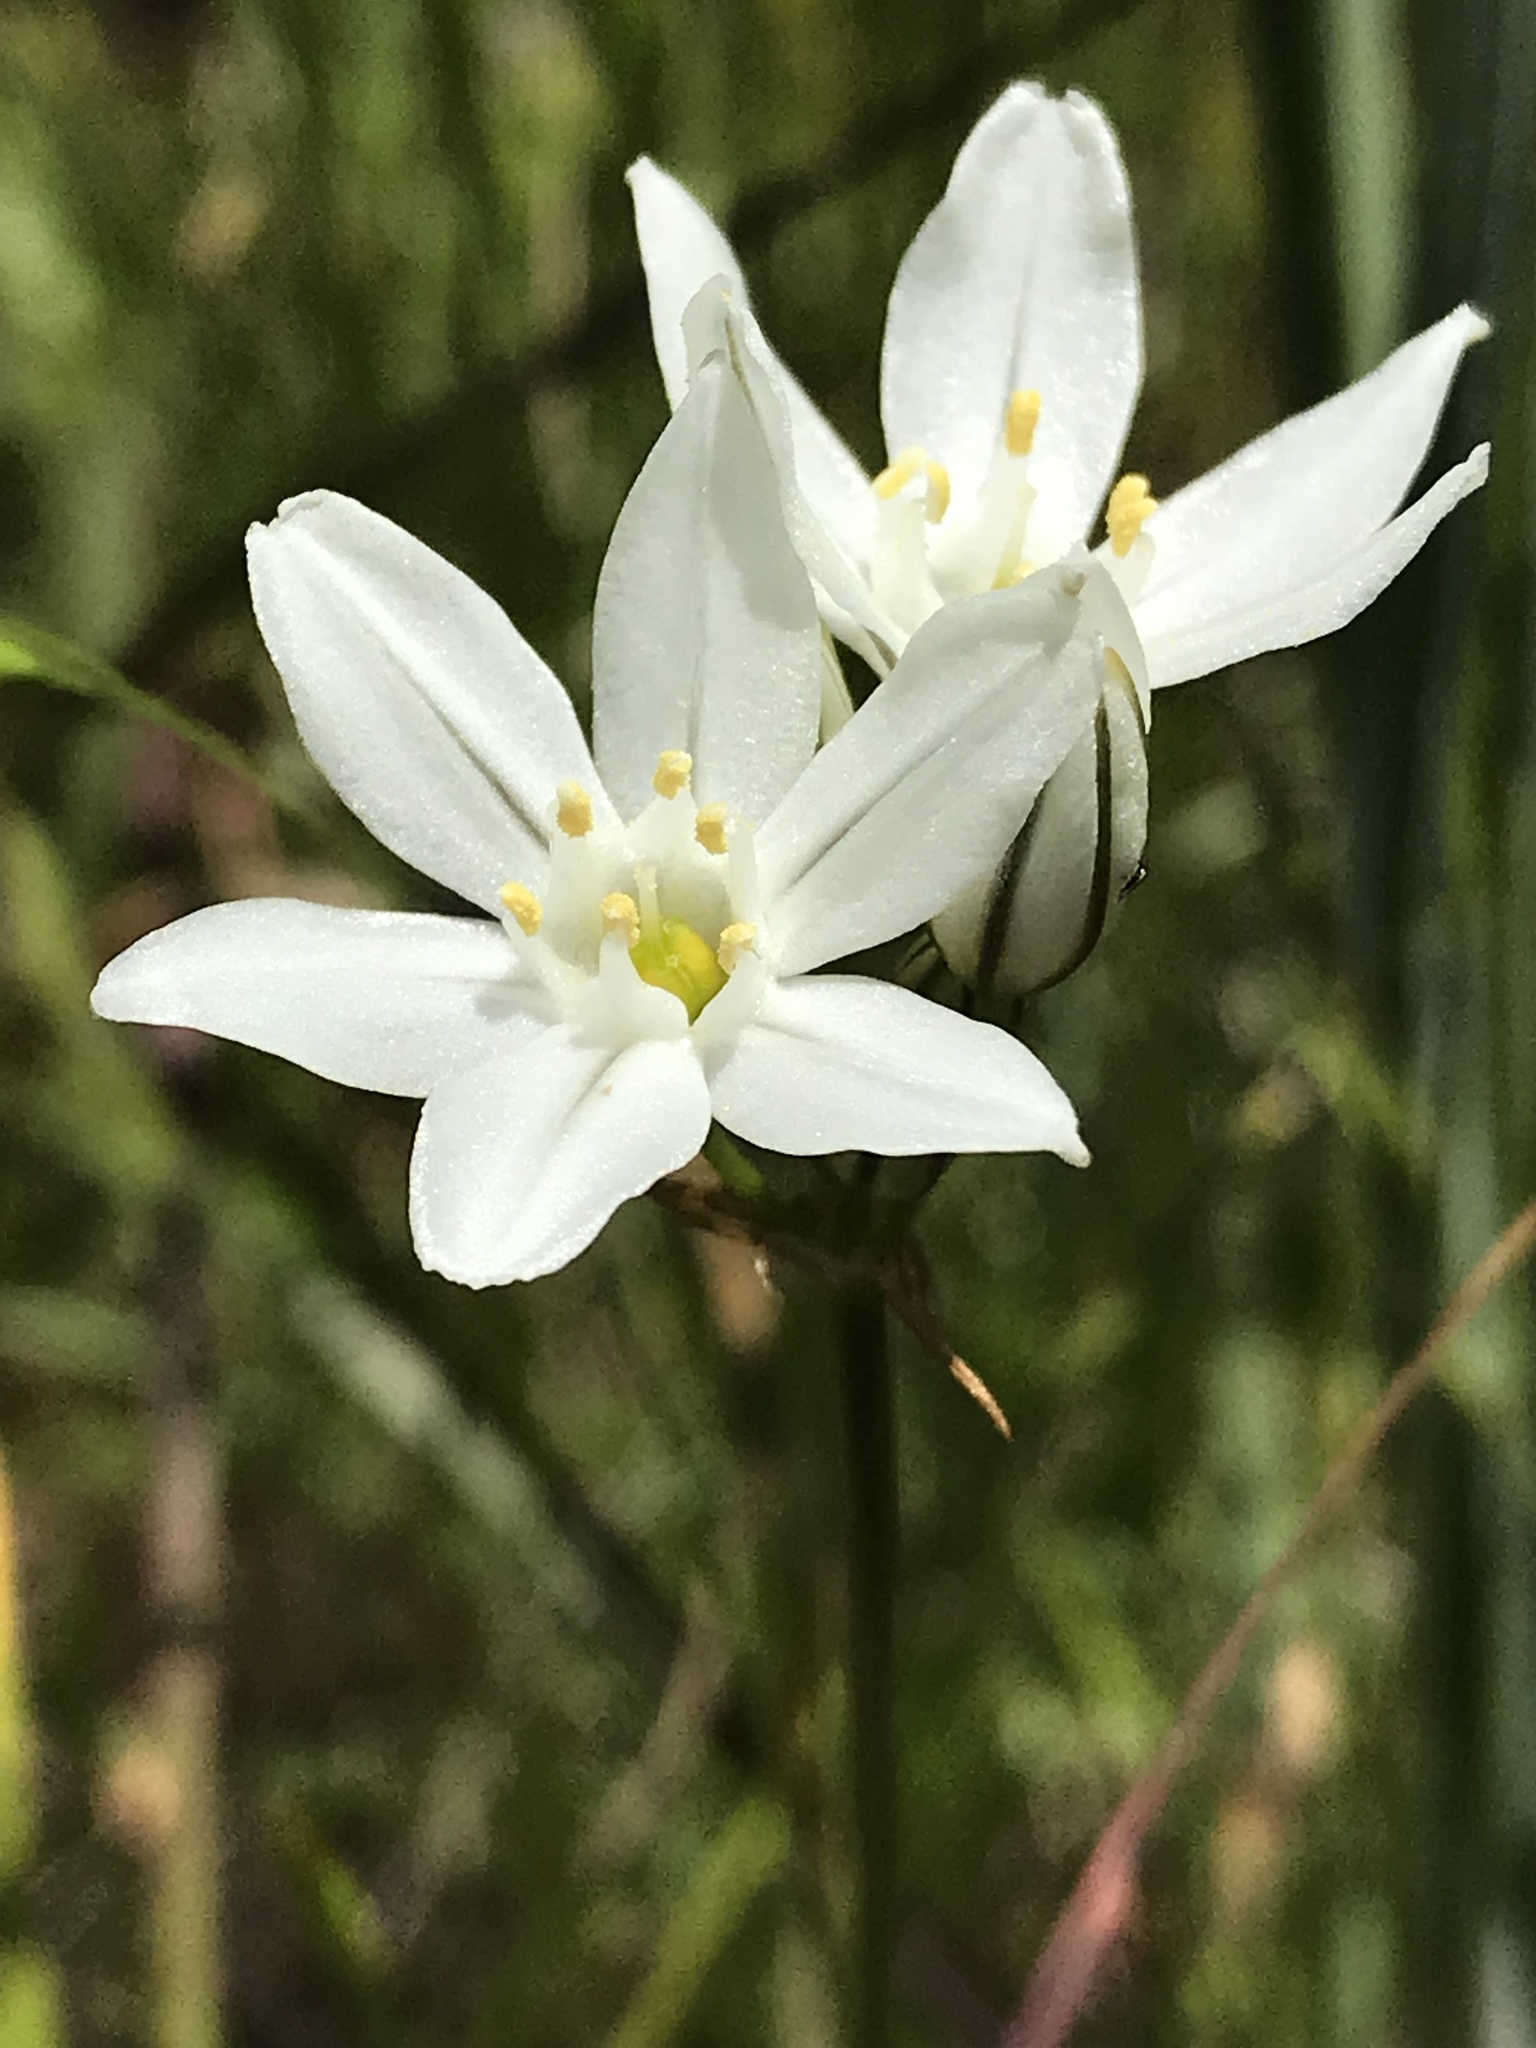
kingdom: Plantae
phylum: Tracheophyta
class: Liliopsida
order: Asparagales
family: Asparagaceae
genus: Triteleia
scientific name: Triteleia hyacinthina
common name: White brodiaea
